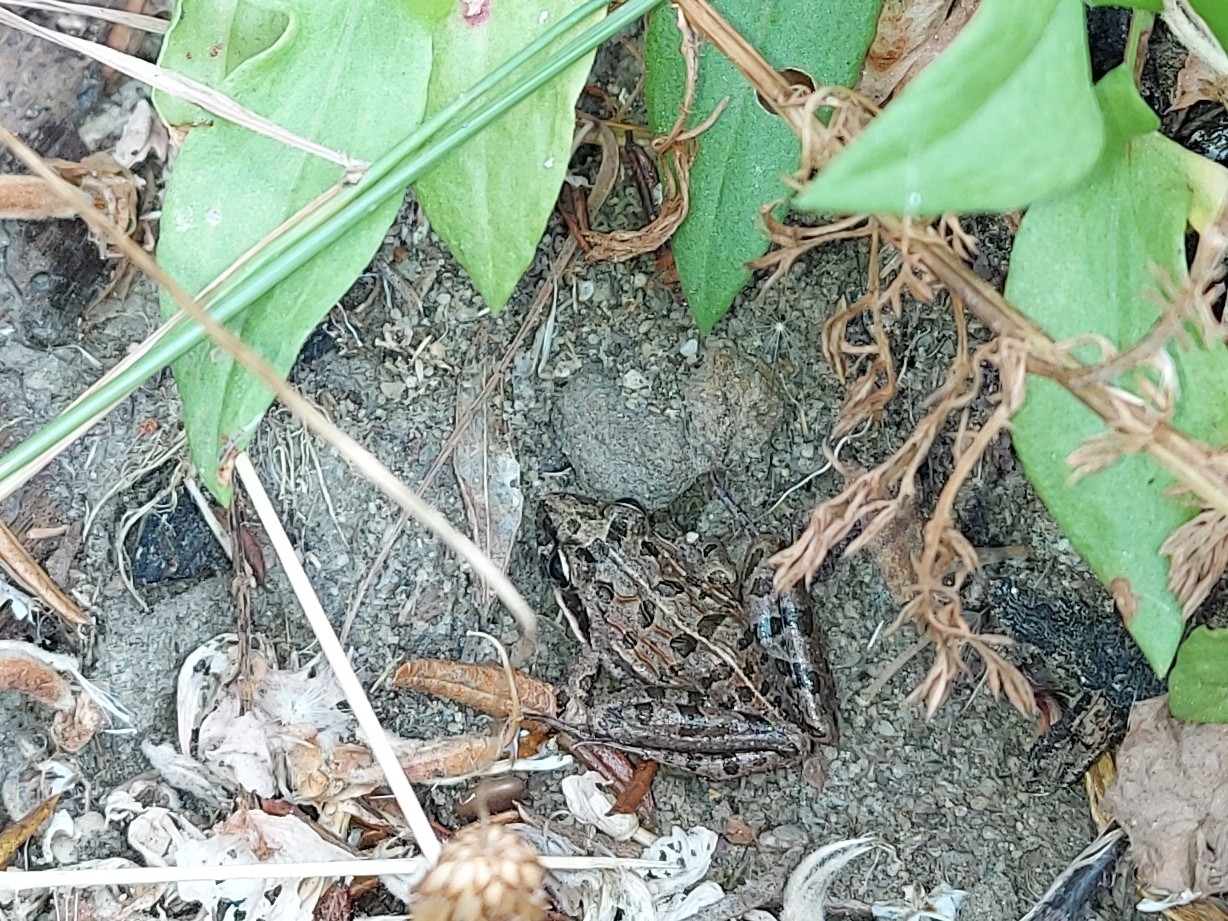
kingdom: Animalia
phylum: Chordata
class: Amphibia
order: Anura
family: Pyxicephalidae
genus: Strongylopus
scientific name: Strongylopus grayii
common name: Gray's stream frog
